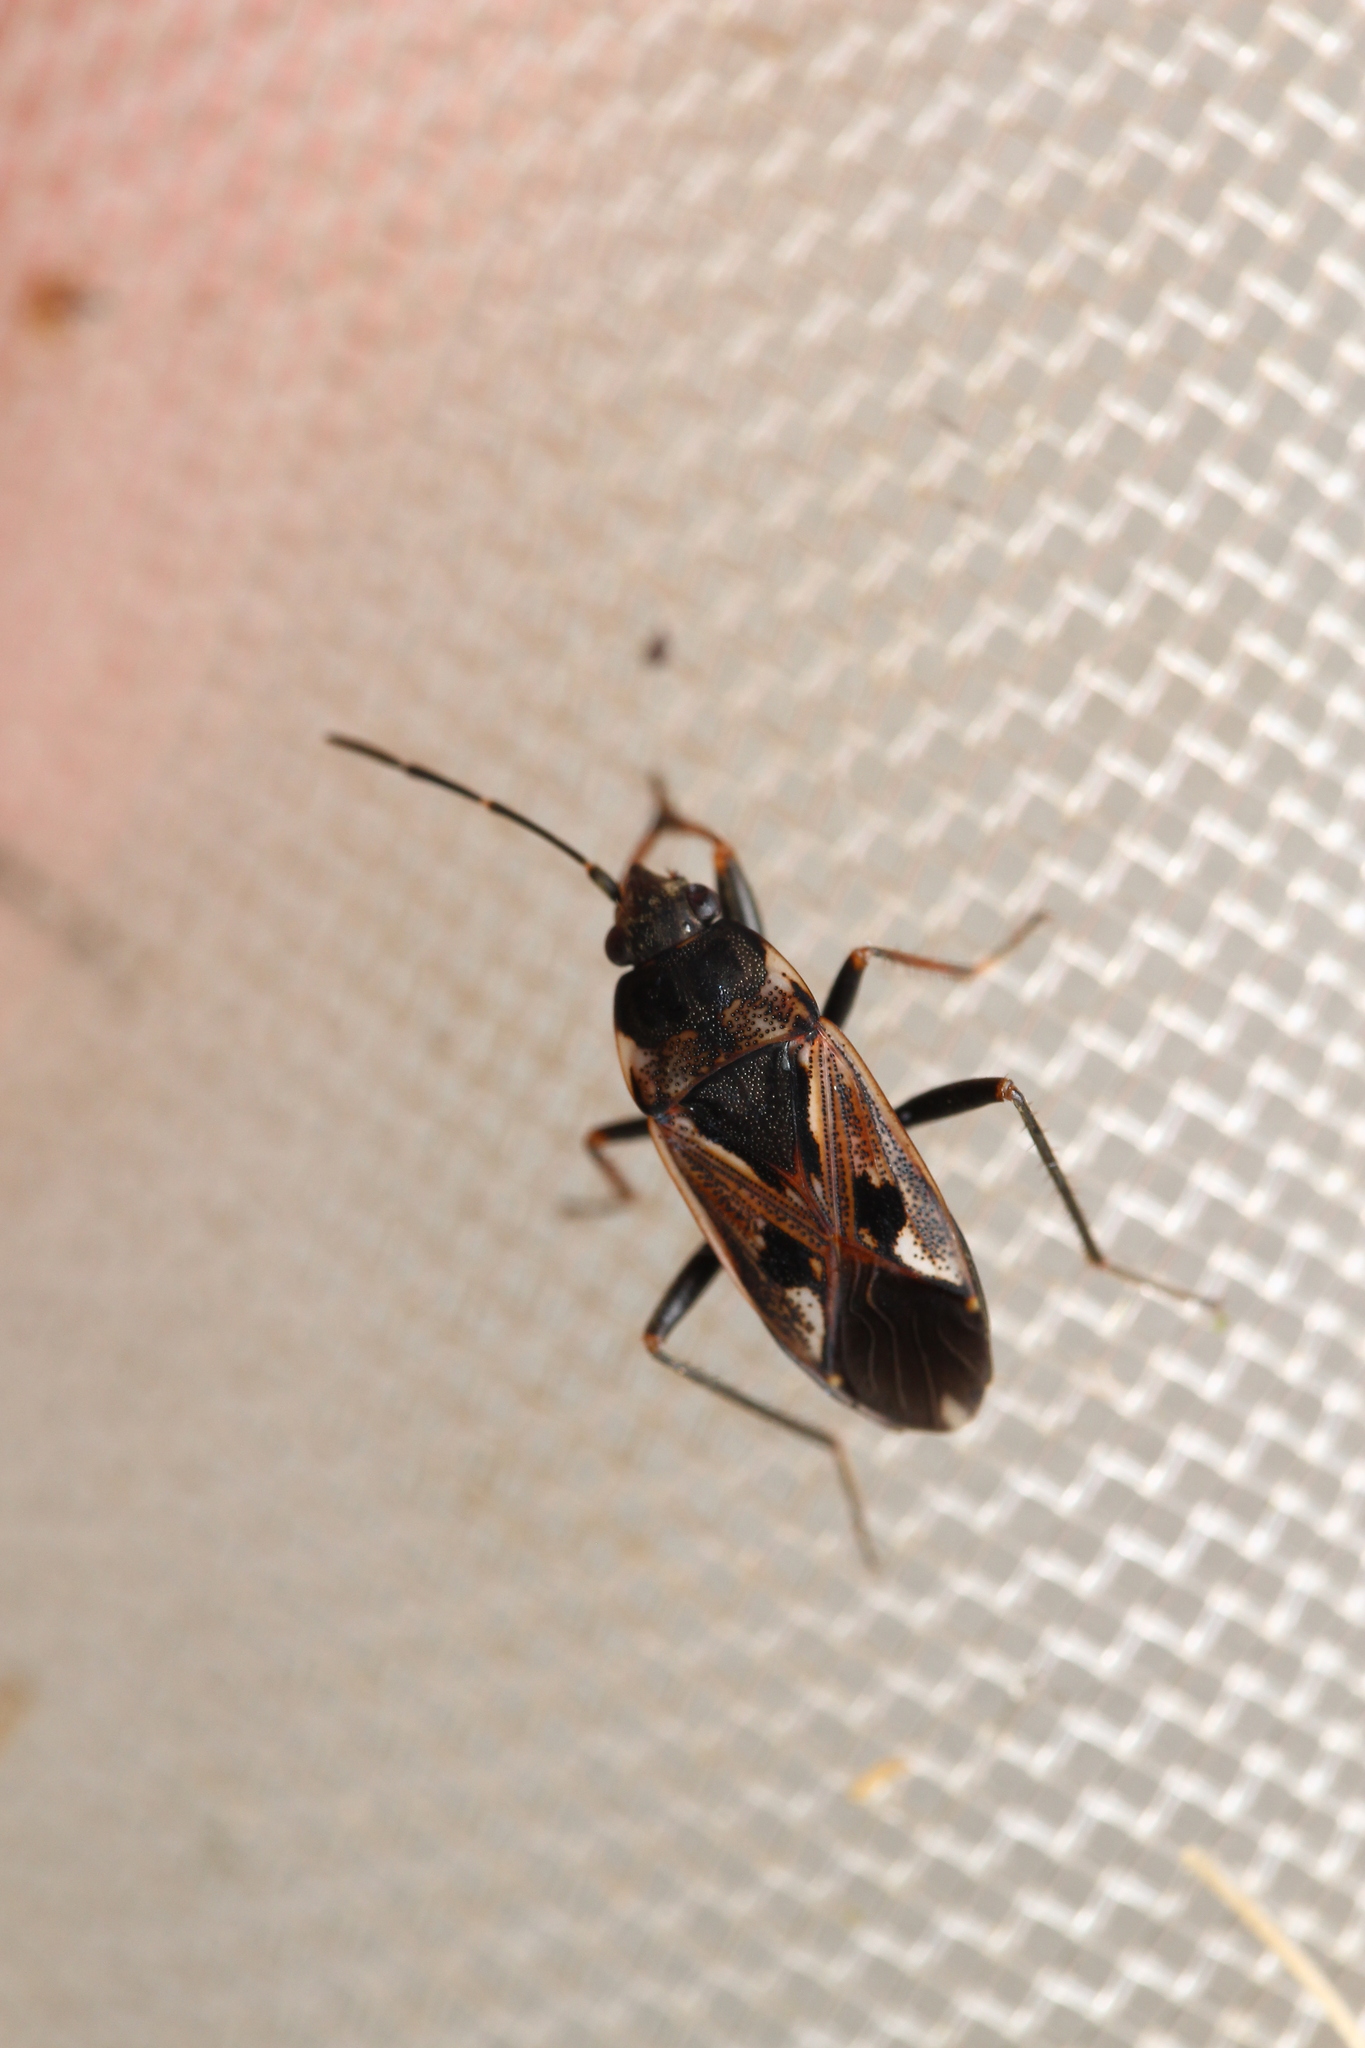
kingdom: Animalia
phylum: Arthropoda
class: Insecta
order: Hemiptera
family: Rhyparochromidae
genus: Rhyparochromus
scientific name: Rhyparochromus vulgaris
